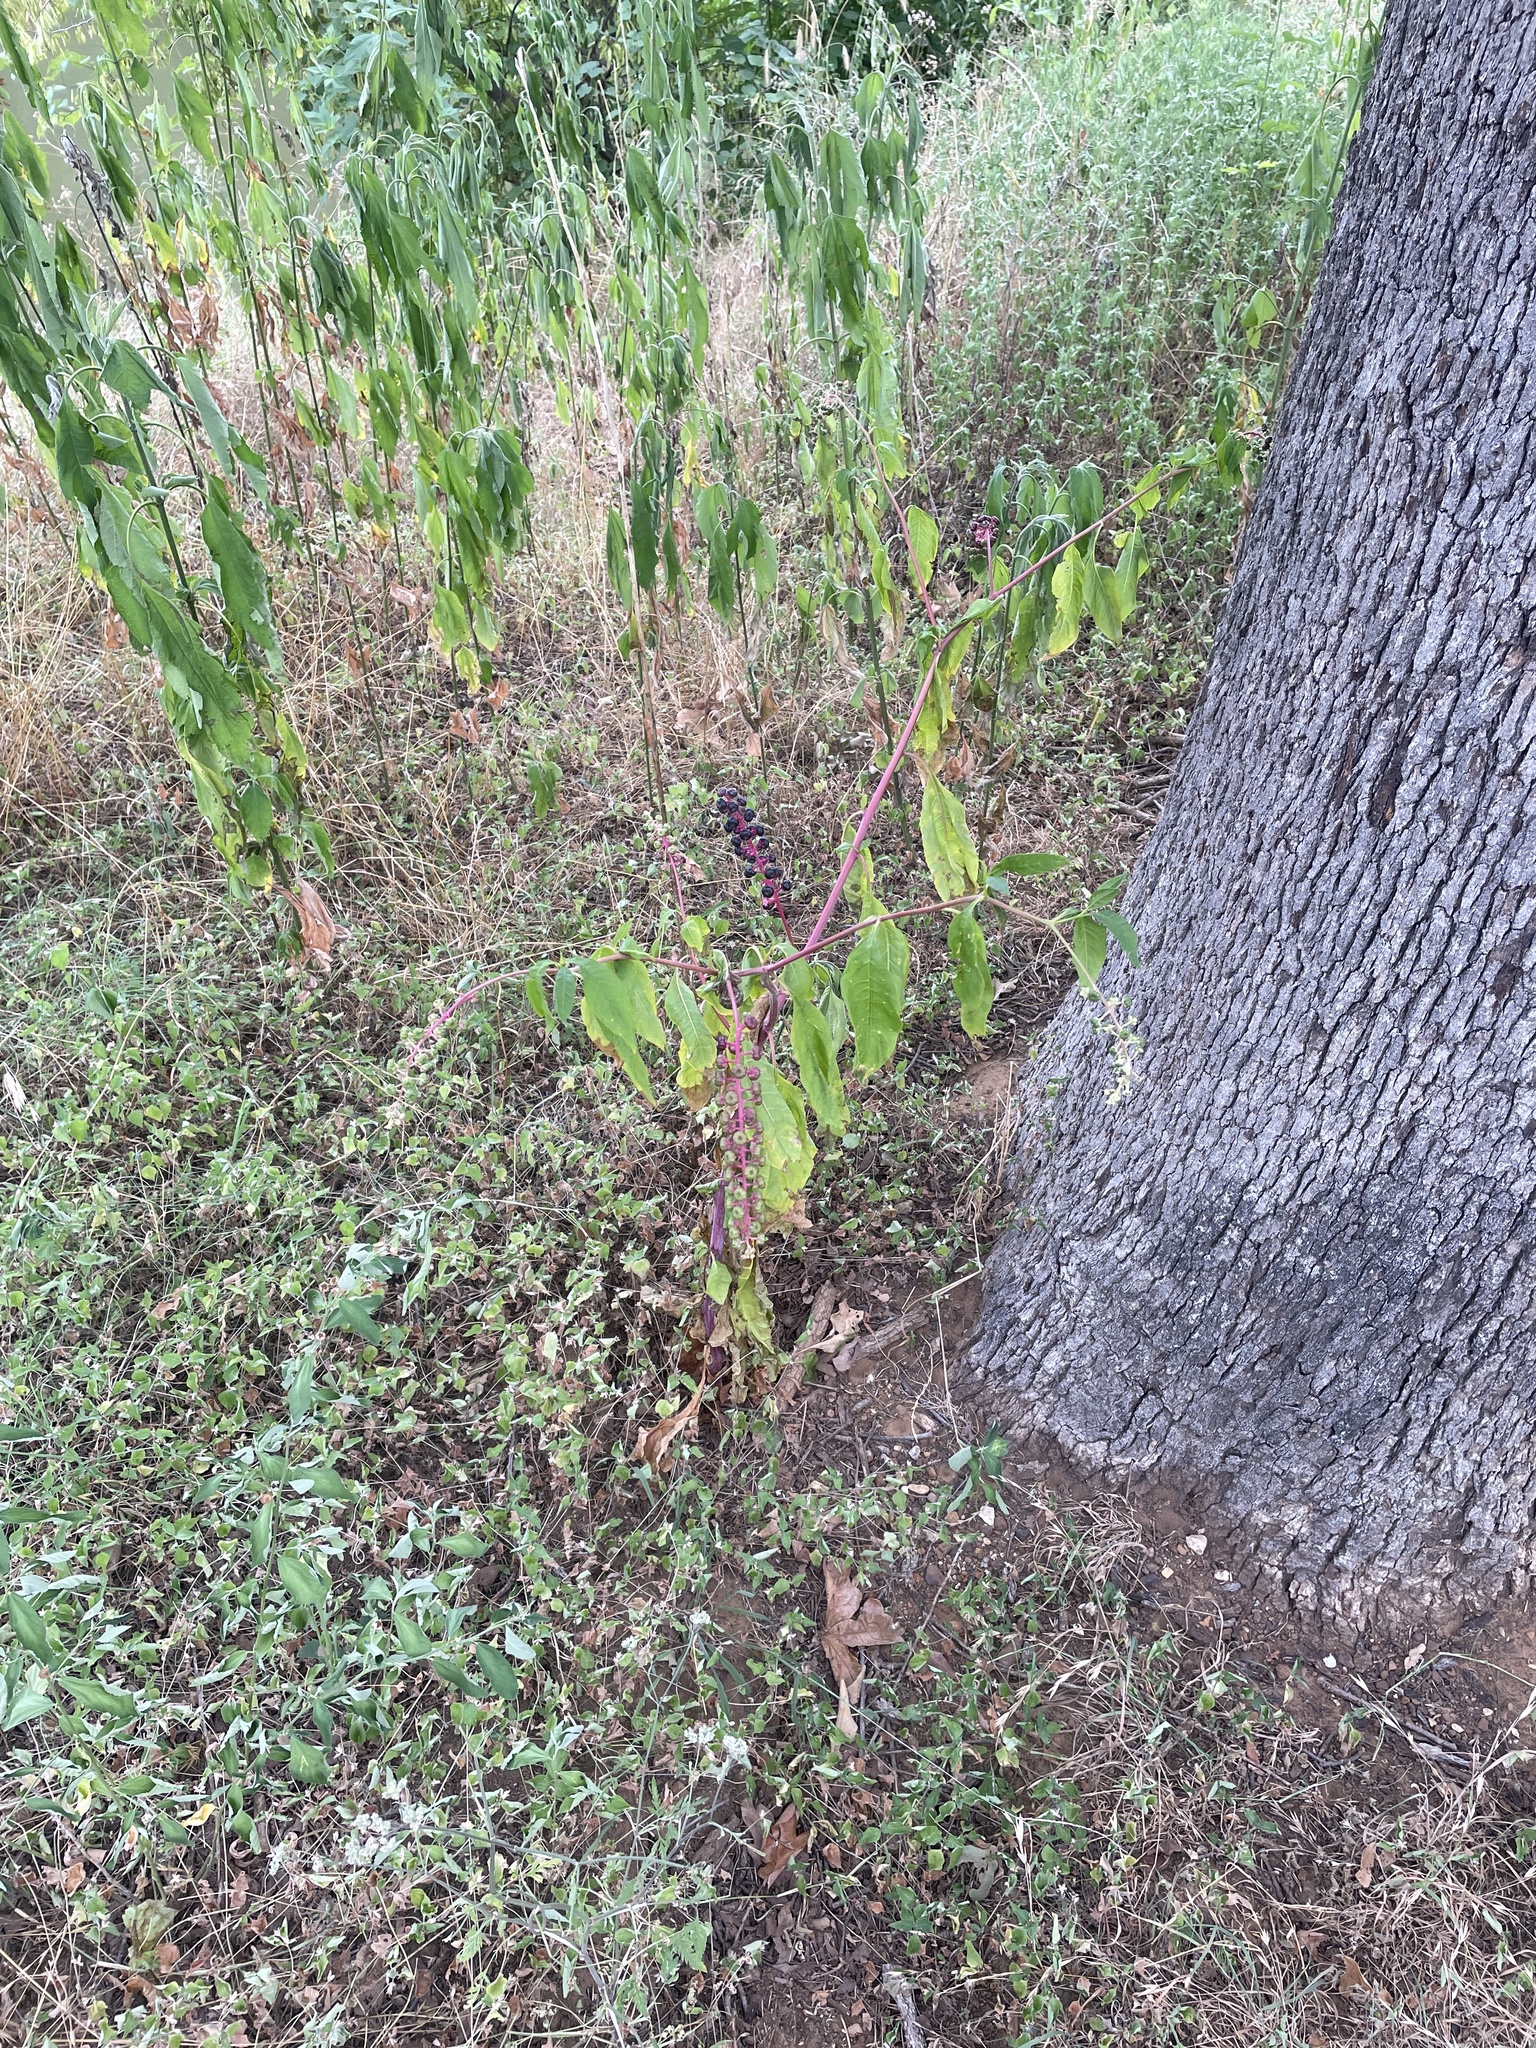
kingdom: Plantae
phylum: Tracheophyta
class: Magnoliopsida
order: Caryophyllales
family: Phytolaccaceae
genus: Phytolacca
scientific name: Phytolacca americana
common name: American pokeweed
